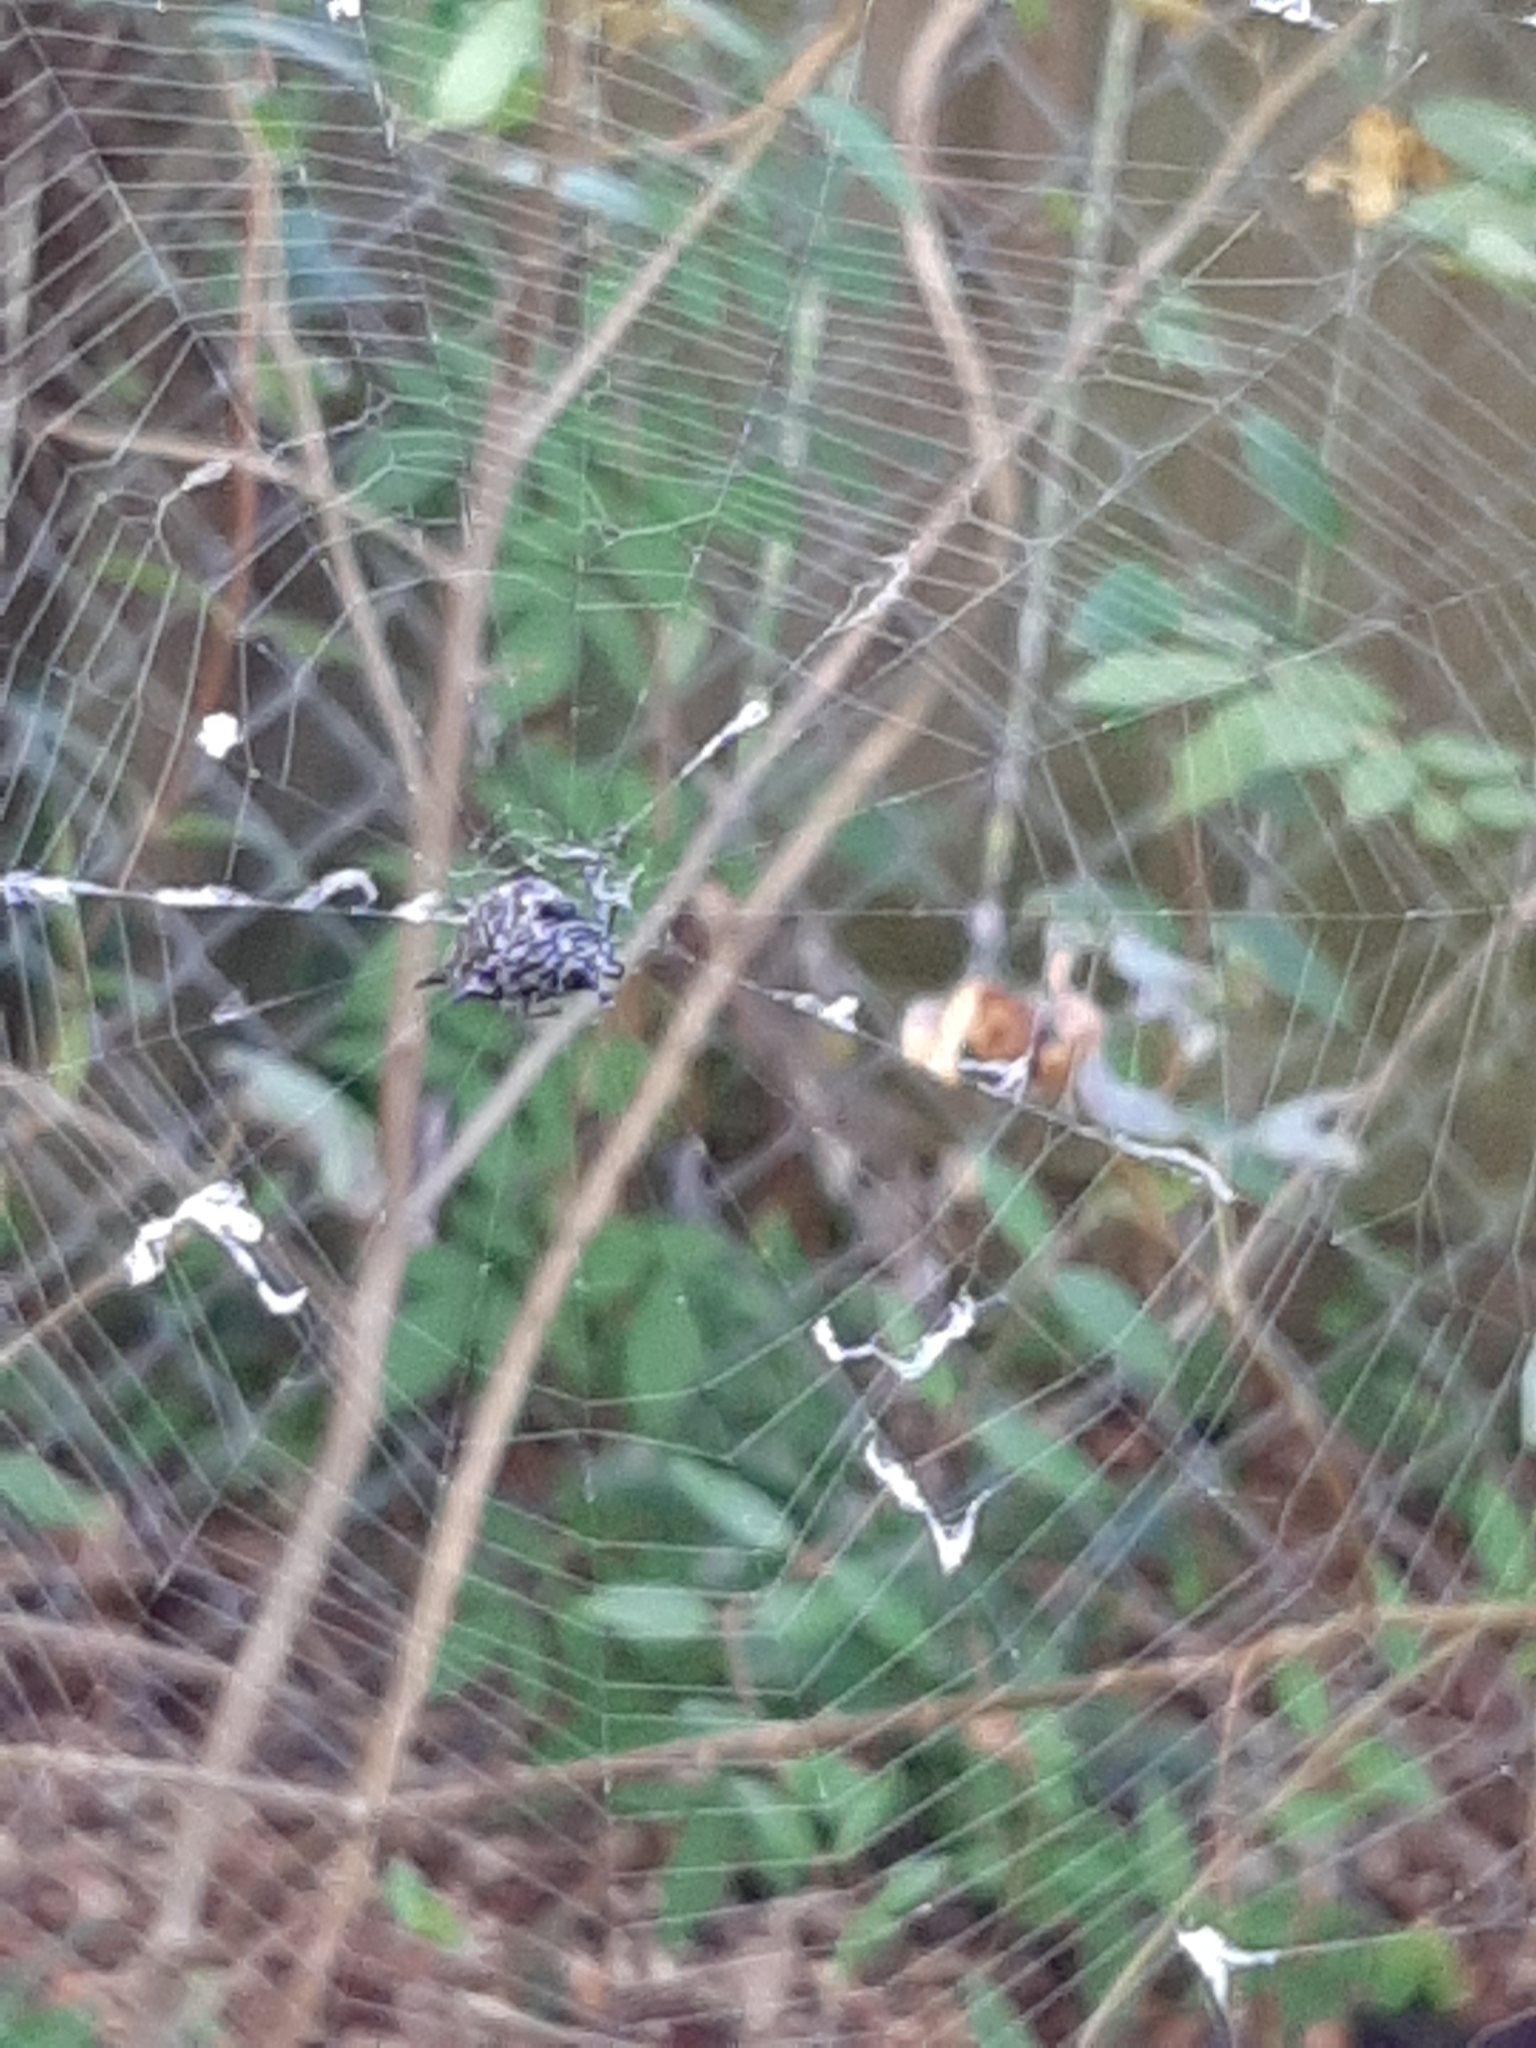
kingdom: Animalia
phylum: Arthropoda
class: Arachnida
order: Araneae
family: Araneidae
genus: Gasteracantha
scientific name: Gasteracantha cancriformis
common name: Orb weavers
